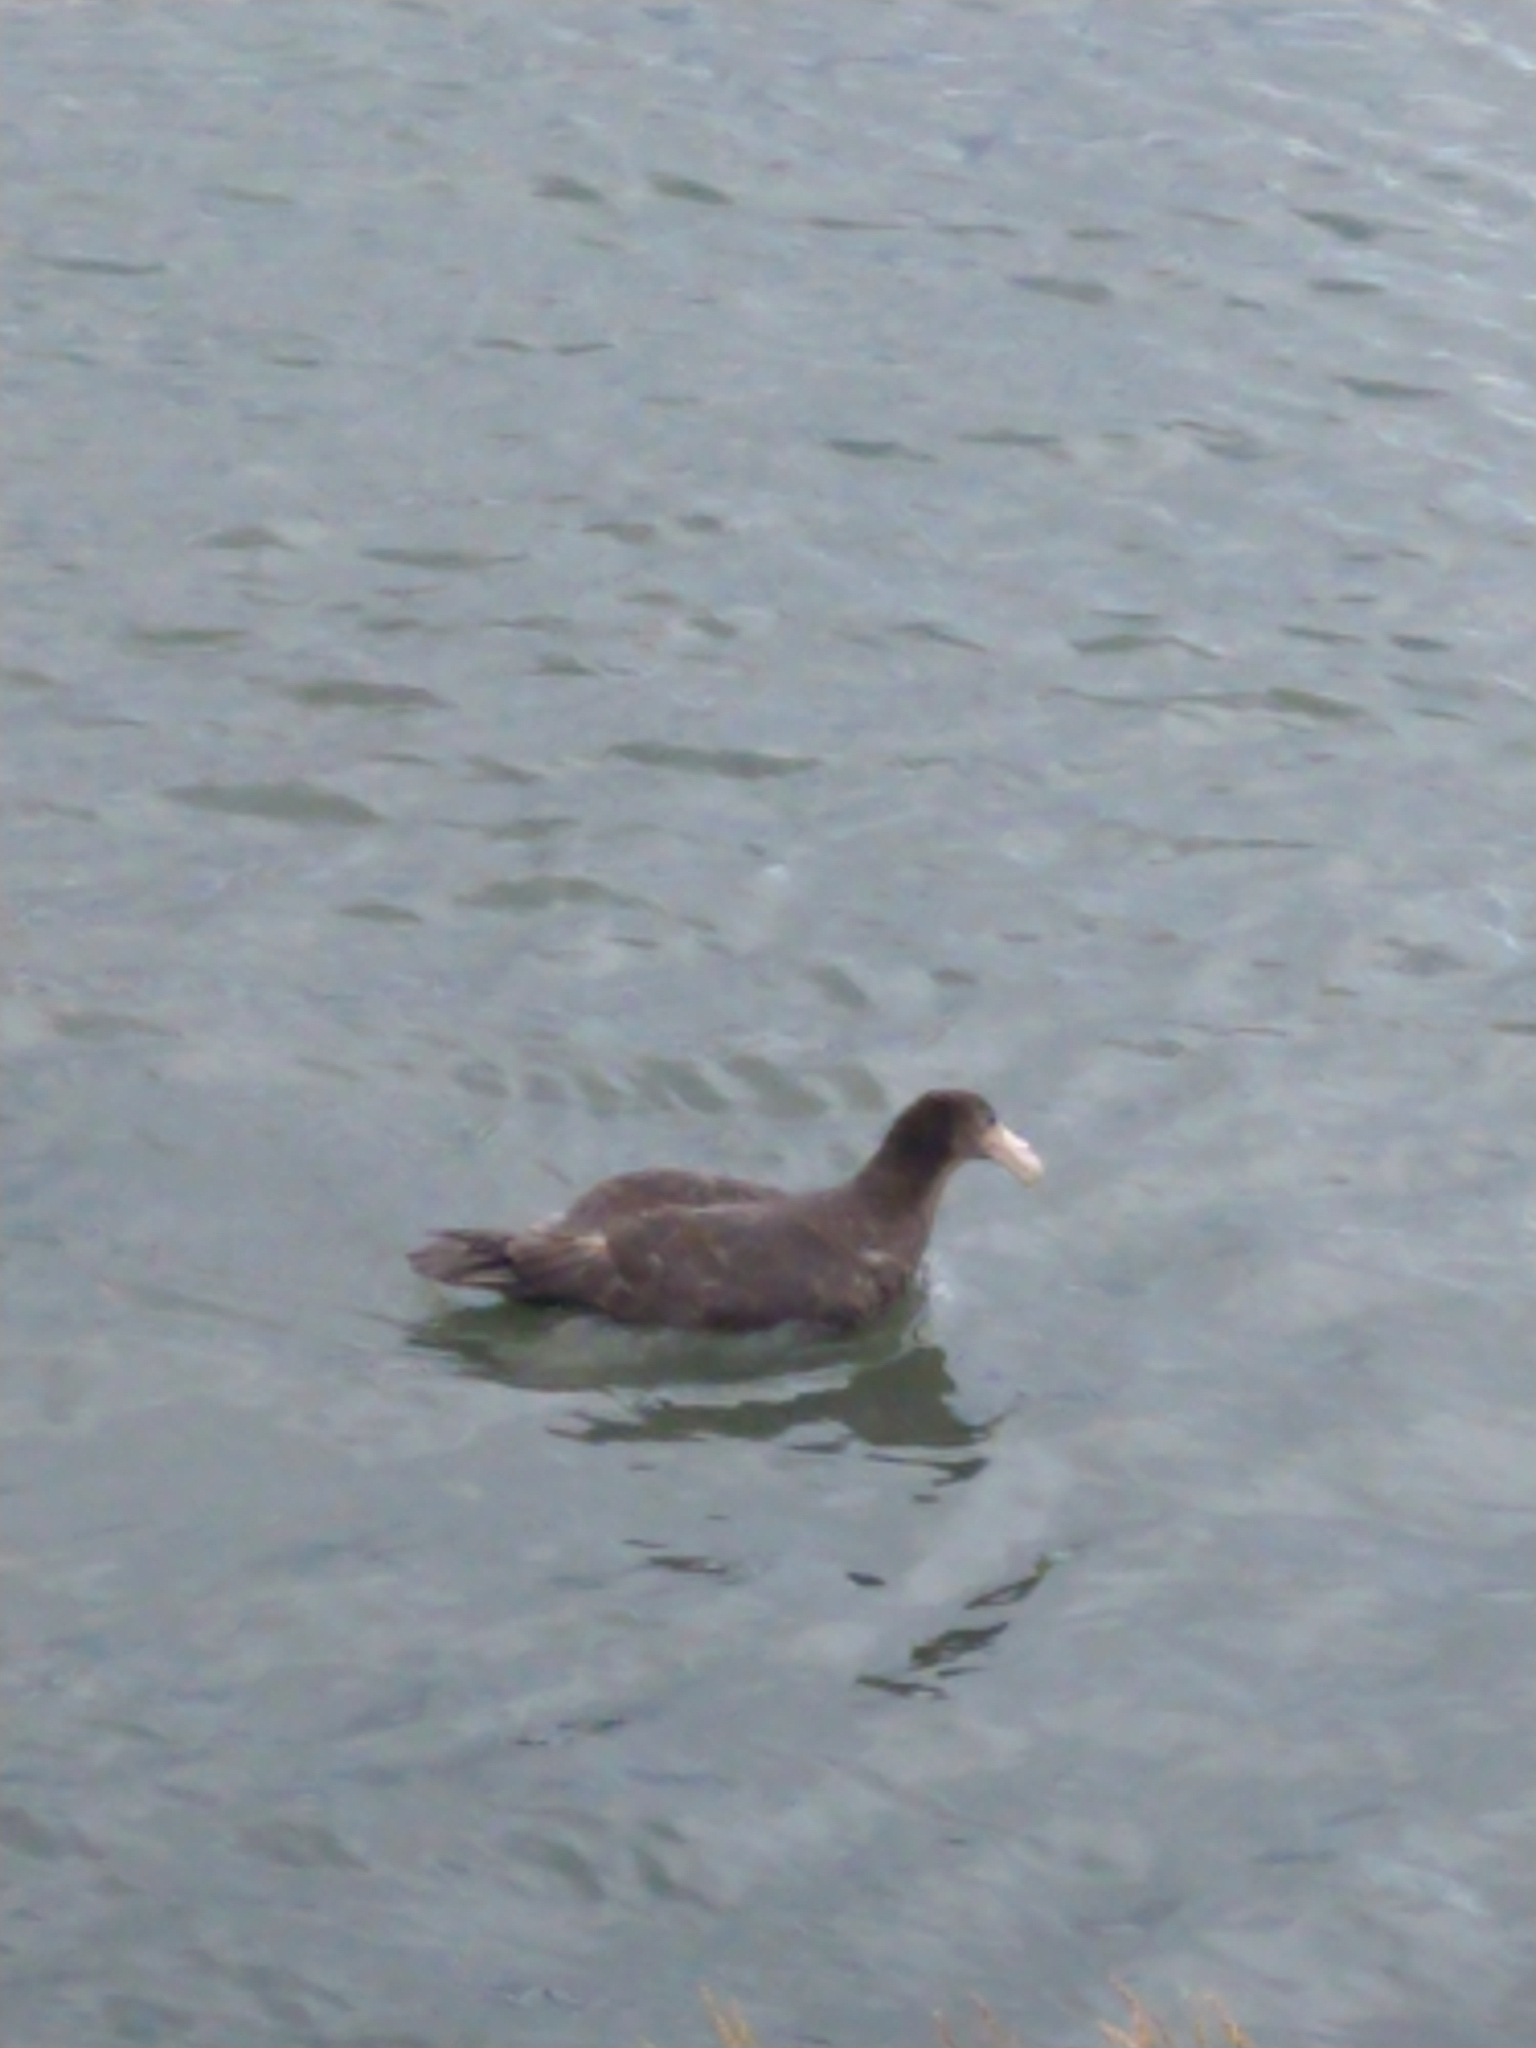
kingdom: Animalia
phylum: Chordata
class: Aves
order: Procellariiformes
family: Procellariidae
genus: Macronectes
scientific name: Macronectes giganteus
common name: Southern giant petrel
